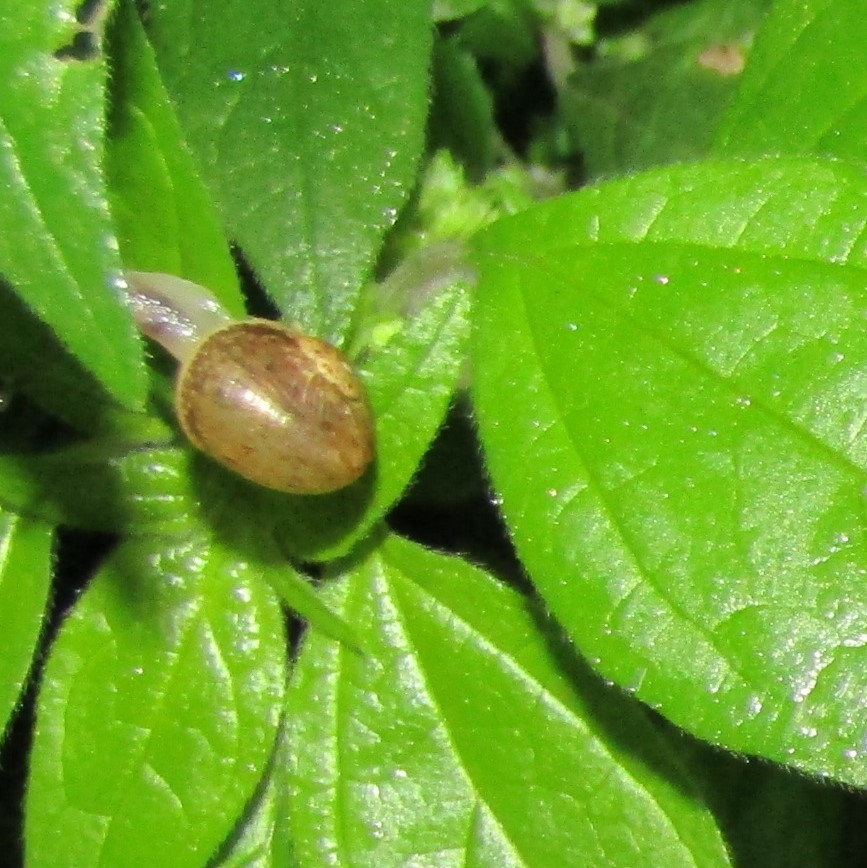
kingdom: Animalia
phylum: Mollusca
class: Gastropoda
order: Stylommatophora
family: Helicidae
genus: Cornu
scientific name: Cornu aspersum
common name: Brown garden snail
